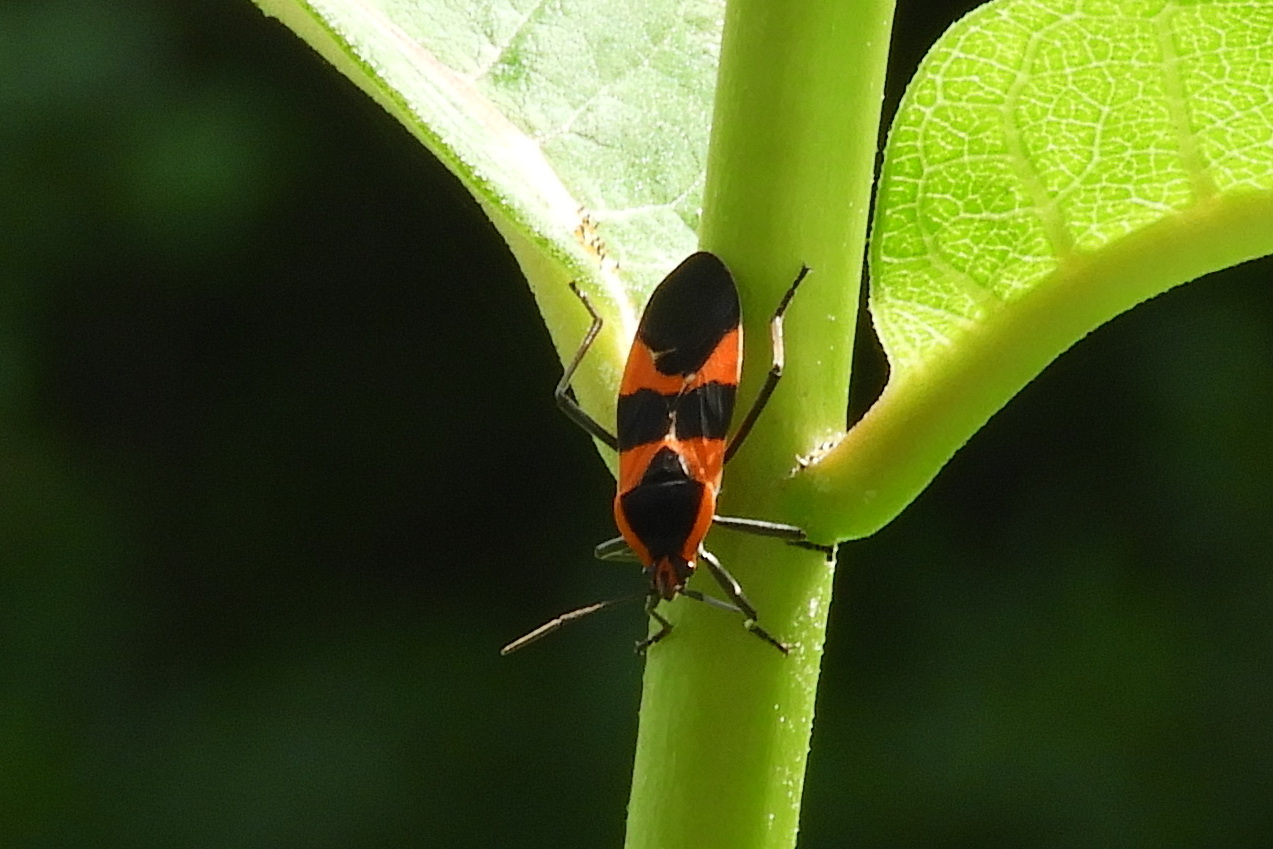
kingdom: Animalia
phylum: Arthropoda
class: Insecta
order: Hemiptera
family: Lygaeidae
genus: Oncopeltus
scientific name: Oncopeltus fasciatus
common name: Large milkweed bug
